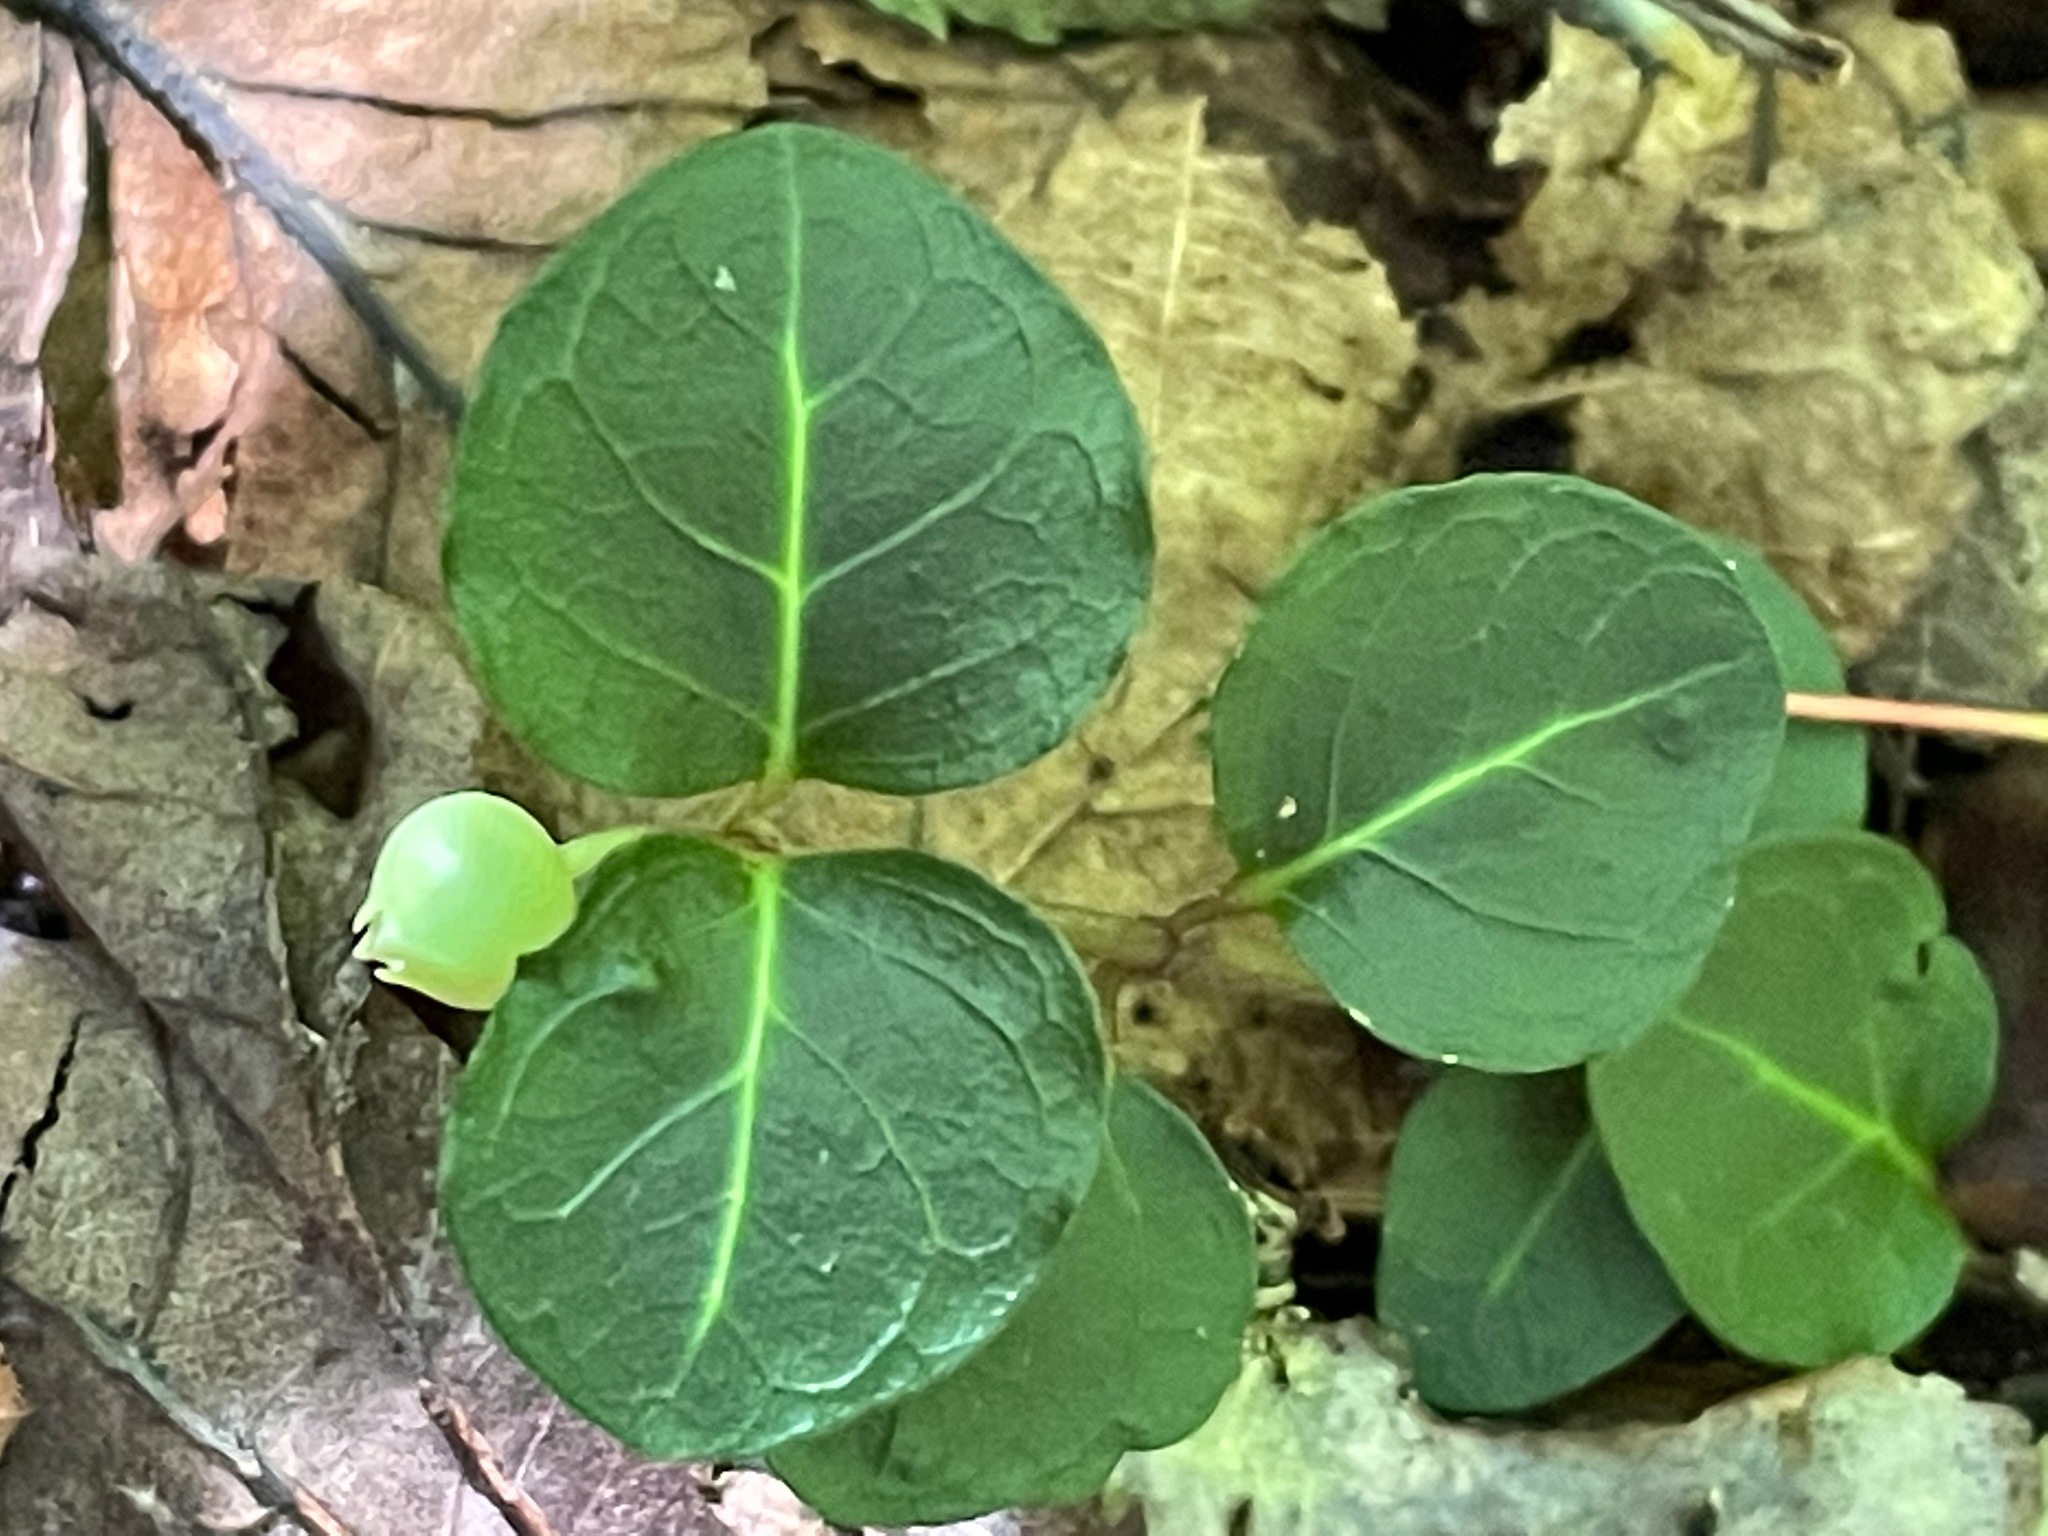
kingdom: Plantae
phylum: Tracheophyta
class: Magnoliopsida
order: Gentianales
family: Rubiaceae
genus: Mitchella
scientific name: Mitchella repens
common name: Partridge-berry
